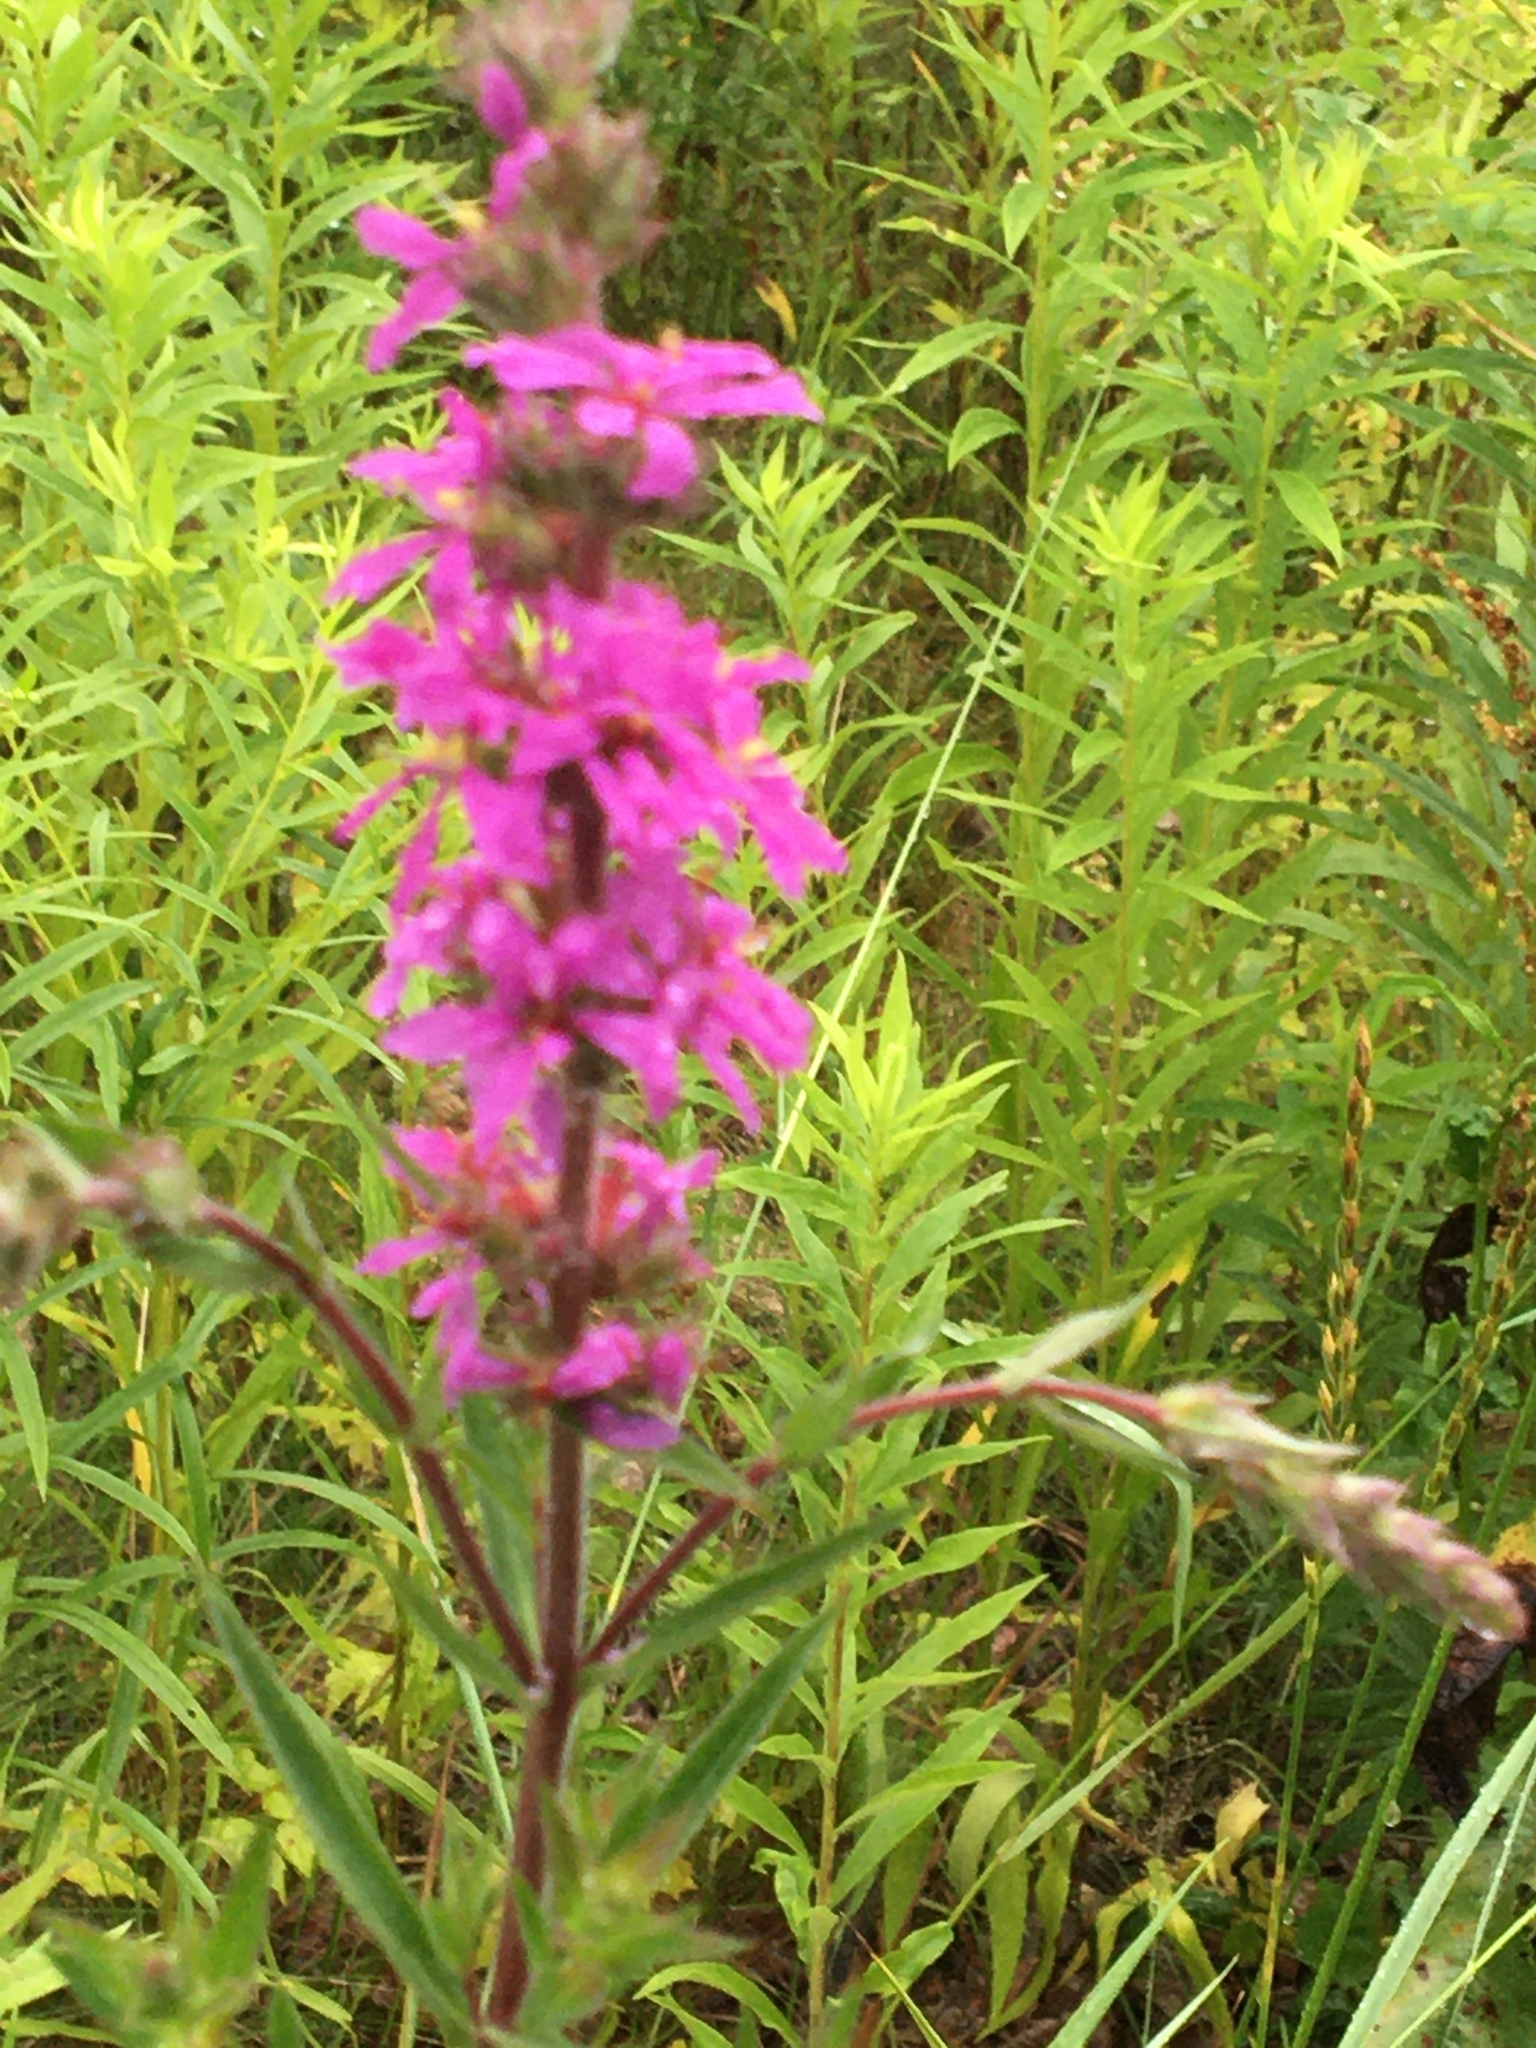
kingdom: Plantae
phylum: Tracheophyta
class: Magnoliopsida
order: Myrtales
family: Lythraceae
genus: Lythrum
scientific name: Lythrum salicaria
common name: Purple loosestrife
